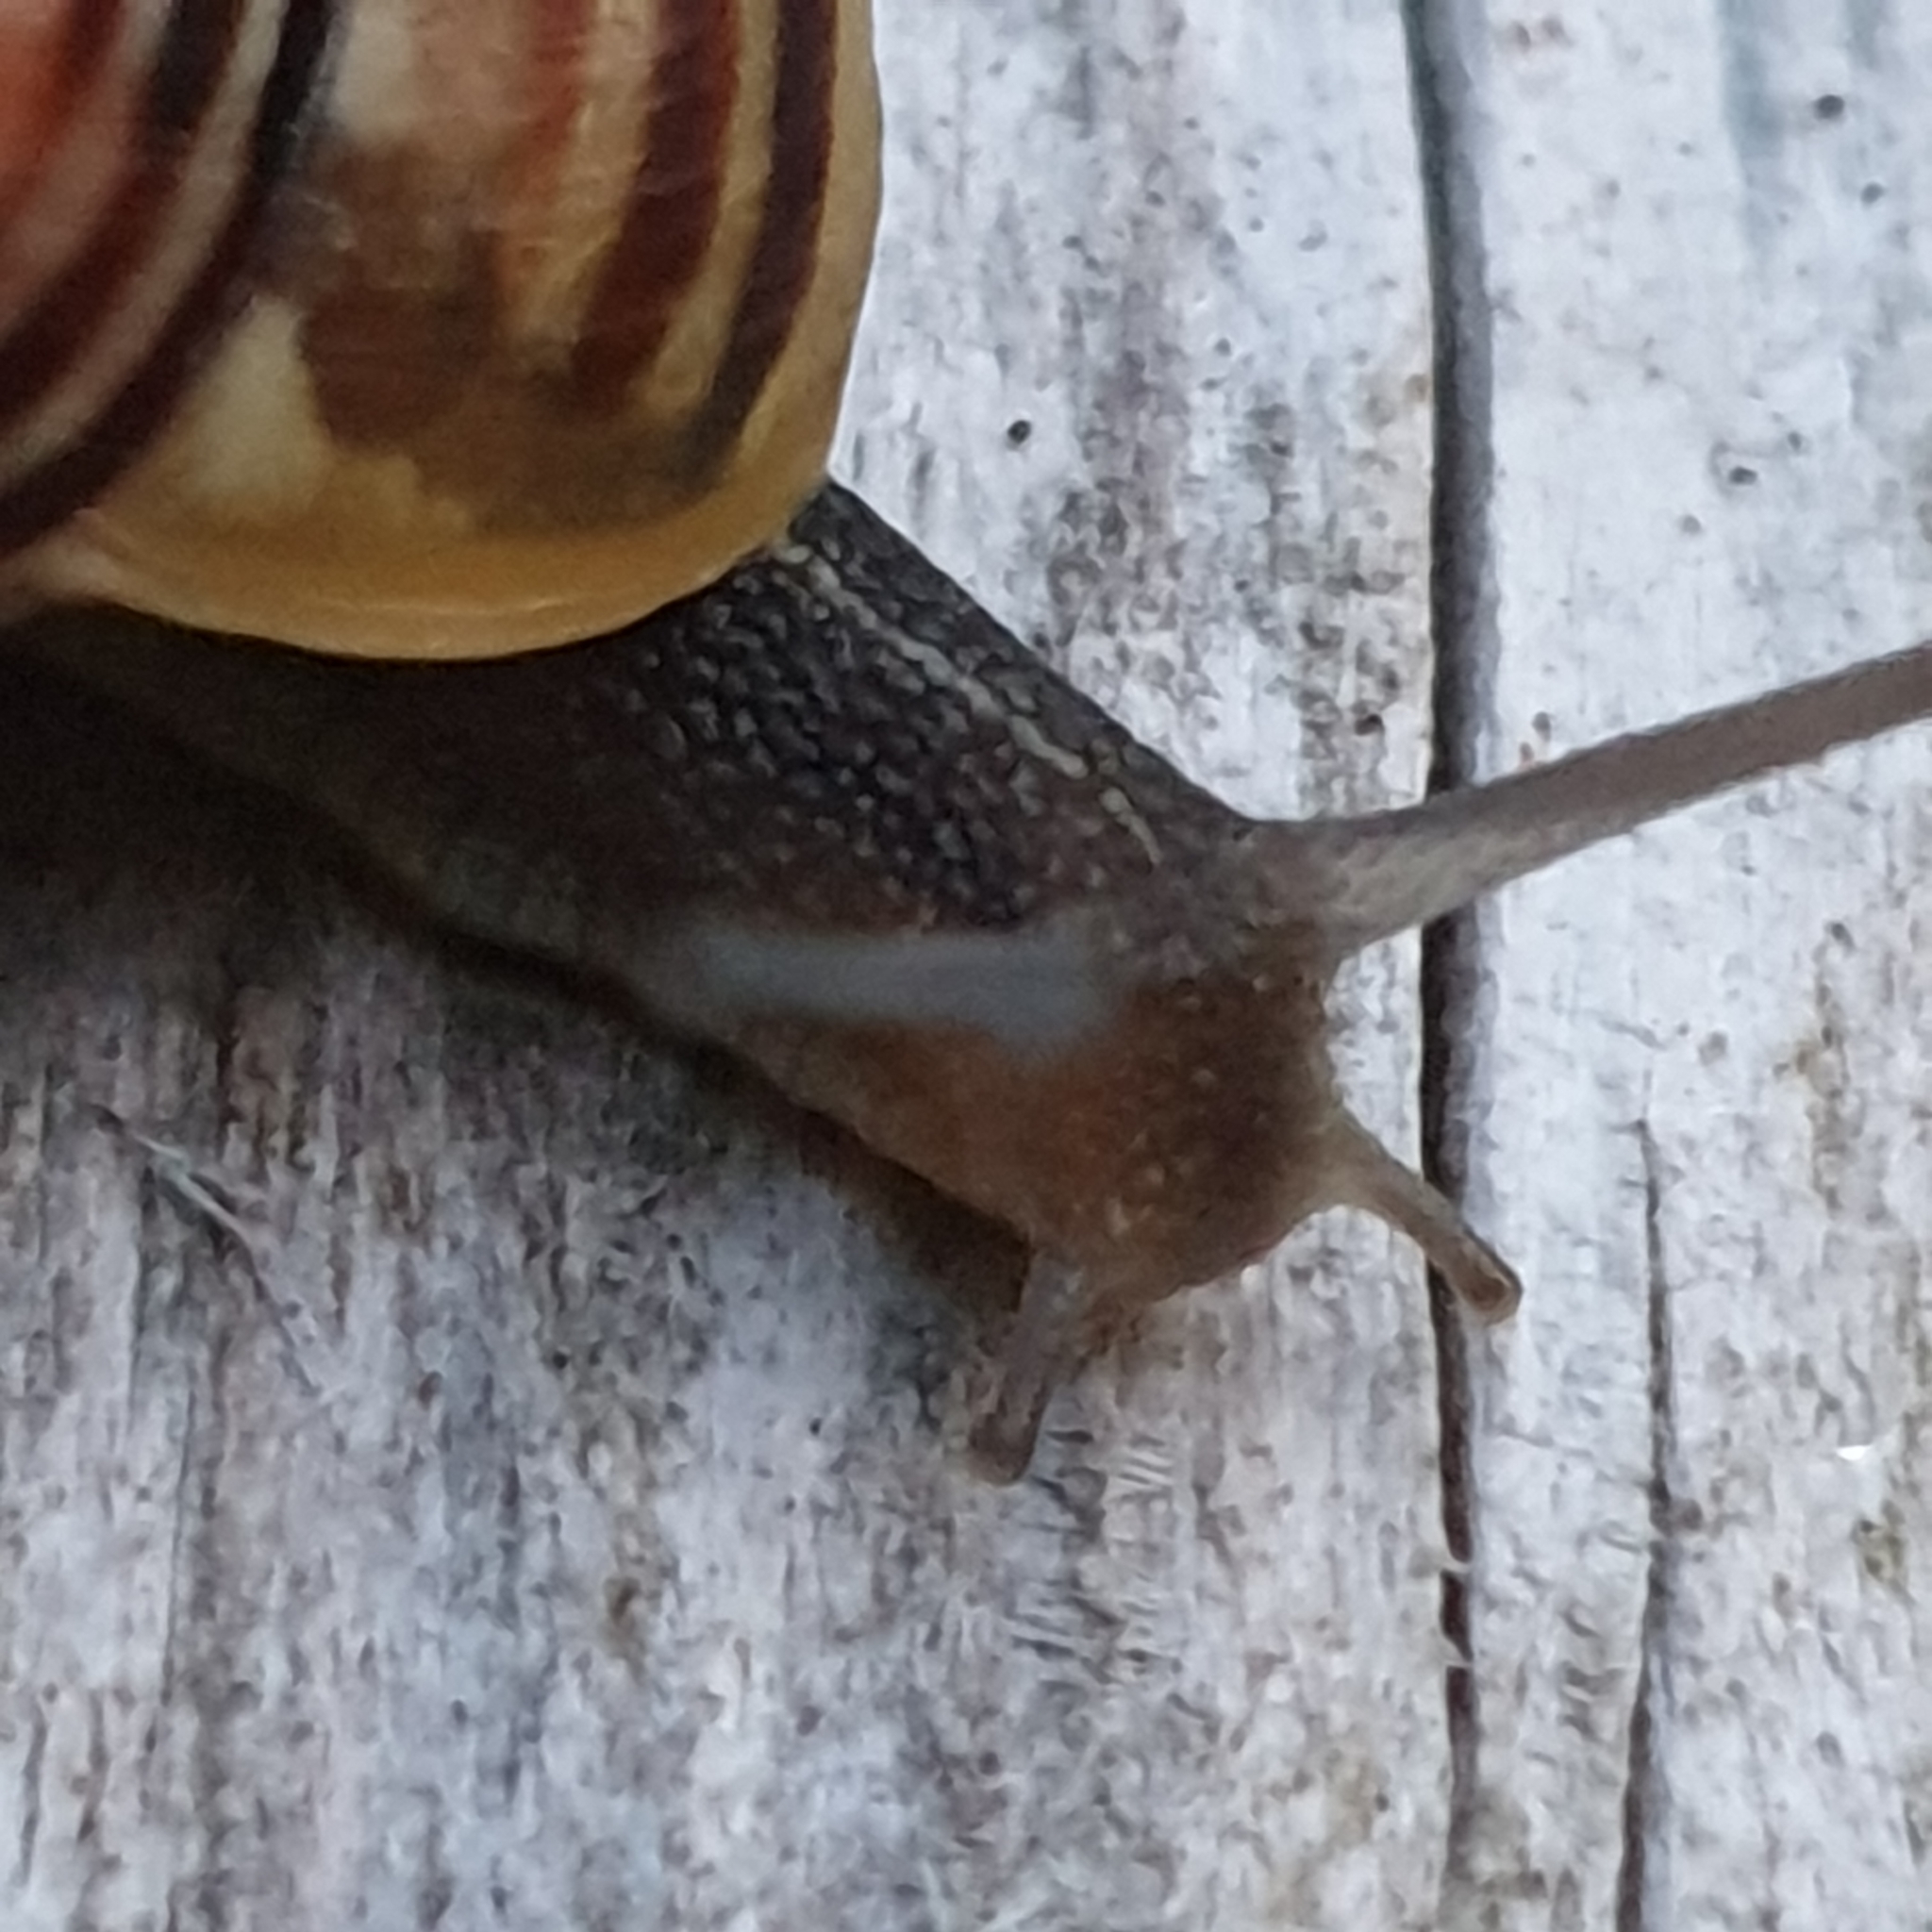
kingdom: Animalia
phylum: Mollusca
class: Gastropoda
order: Stylommatophora
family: Helicidae
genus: Cepaea
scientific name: Cepaea
